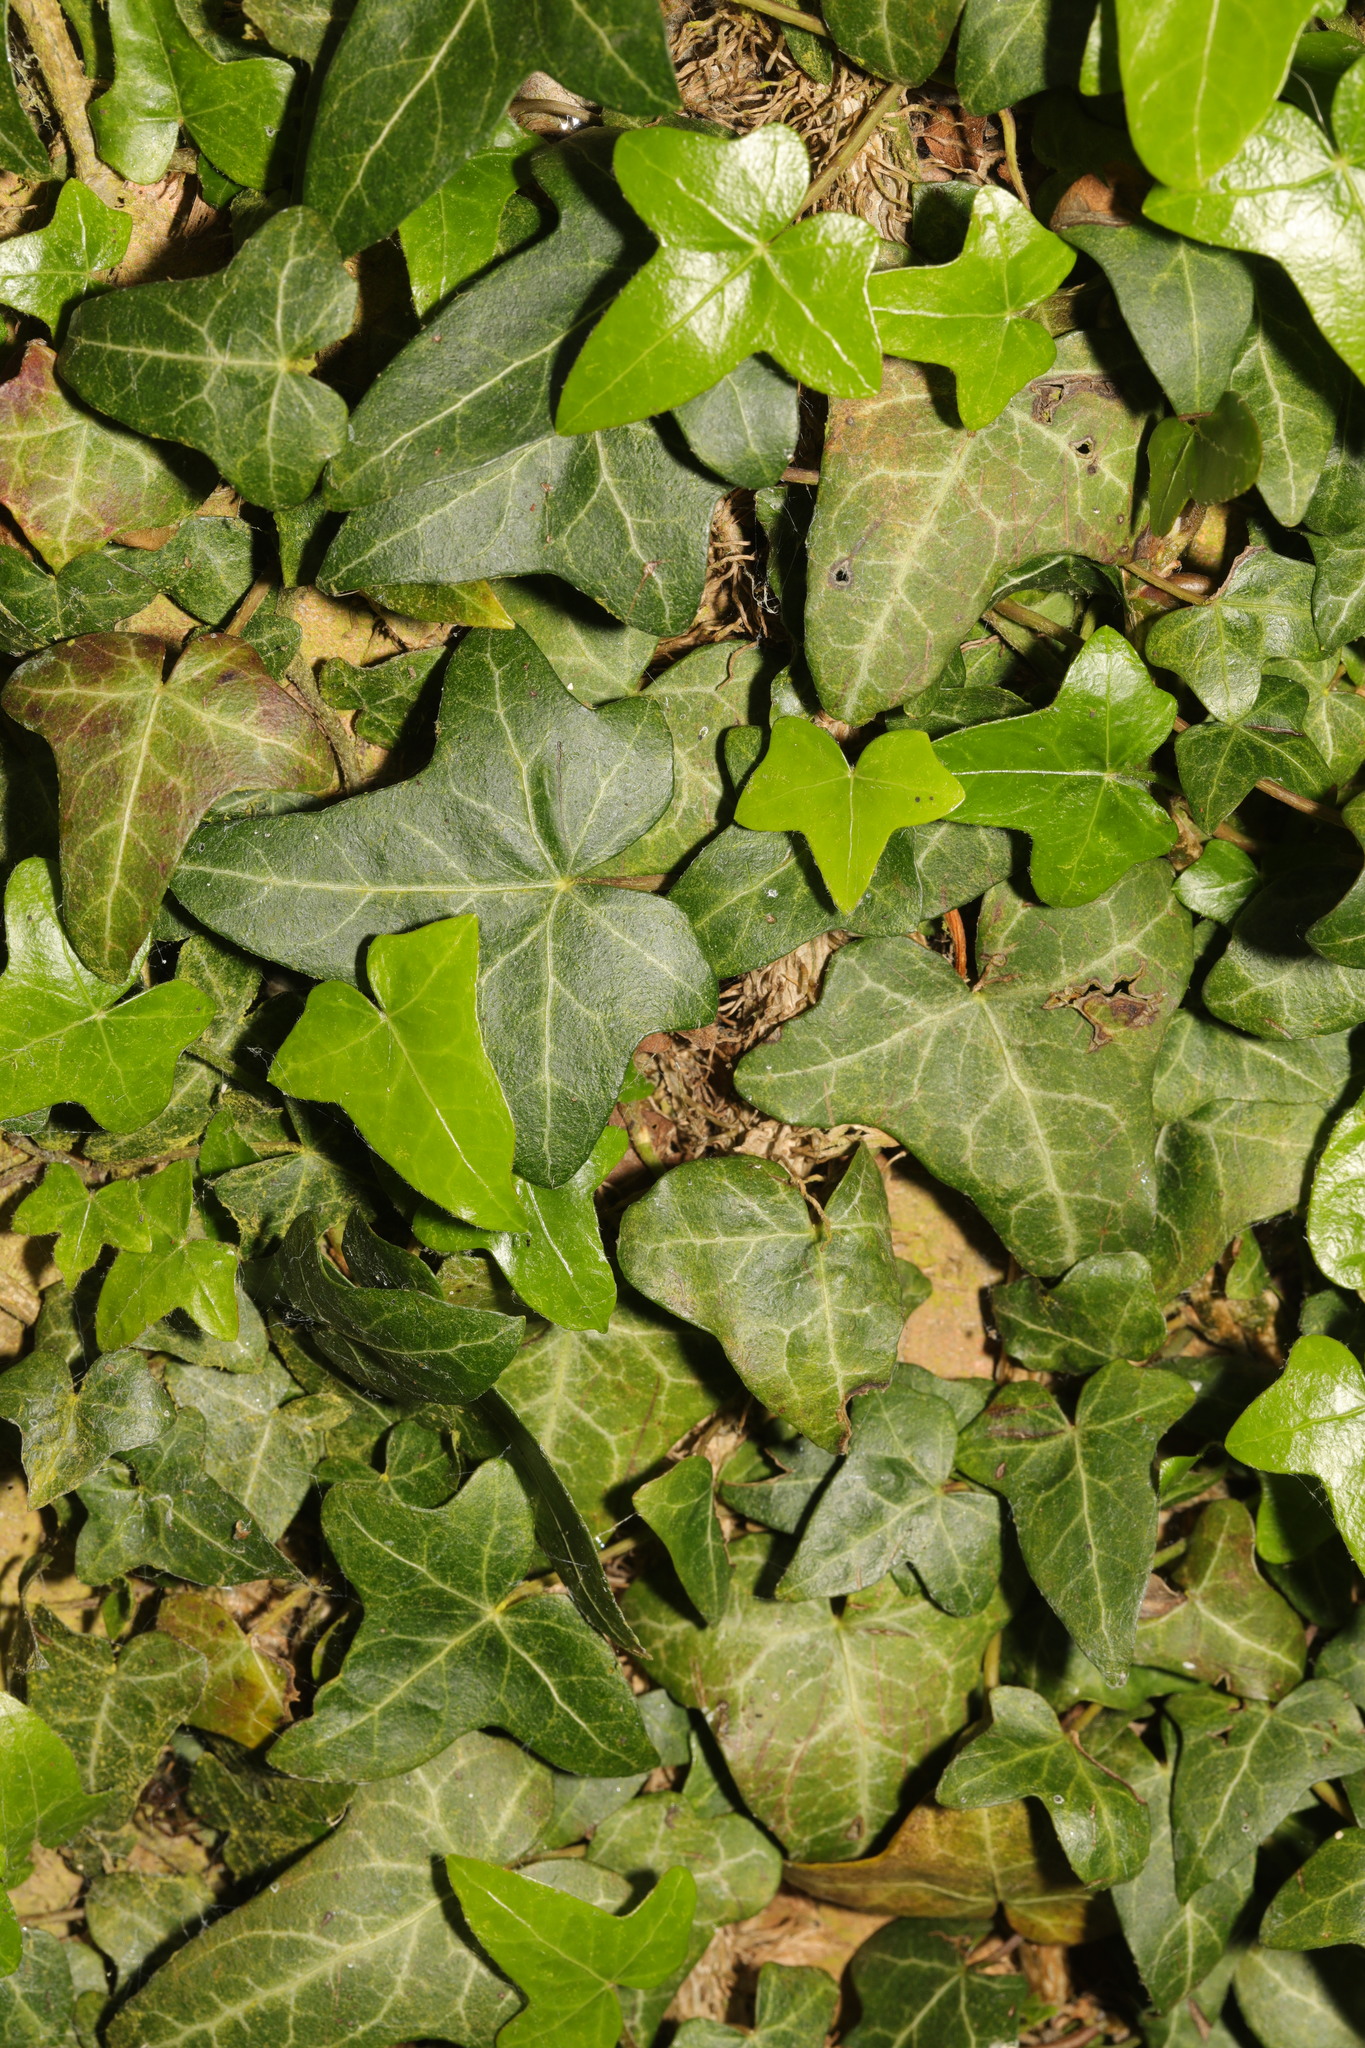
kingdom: Plantae
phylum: Tracheophyta
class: Magnoliopsida
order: Apiales
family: Araliaceae
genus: Hedera
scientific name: Hedera helix
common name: Ivy
